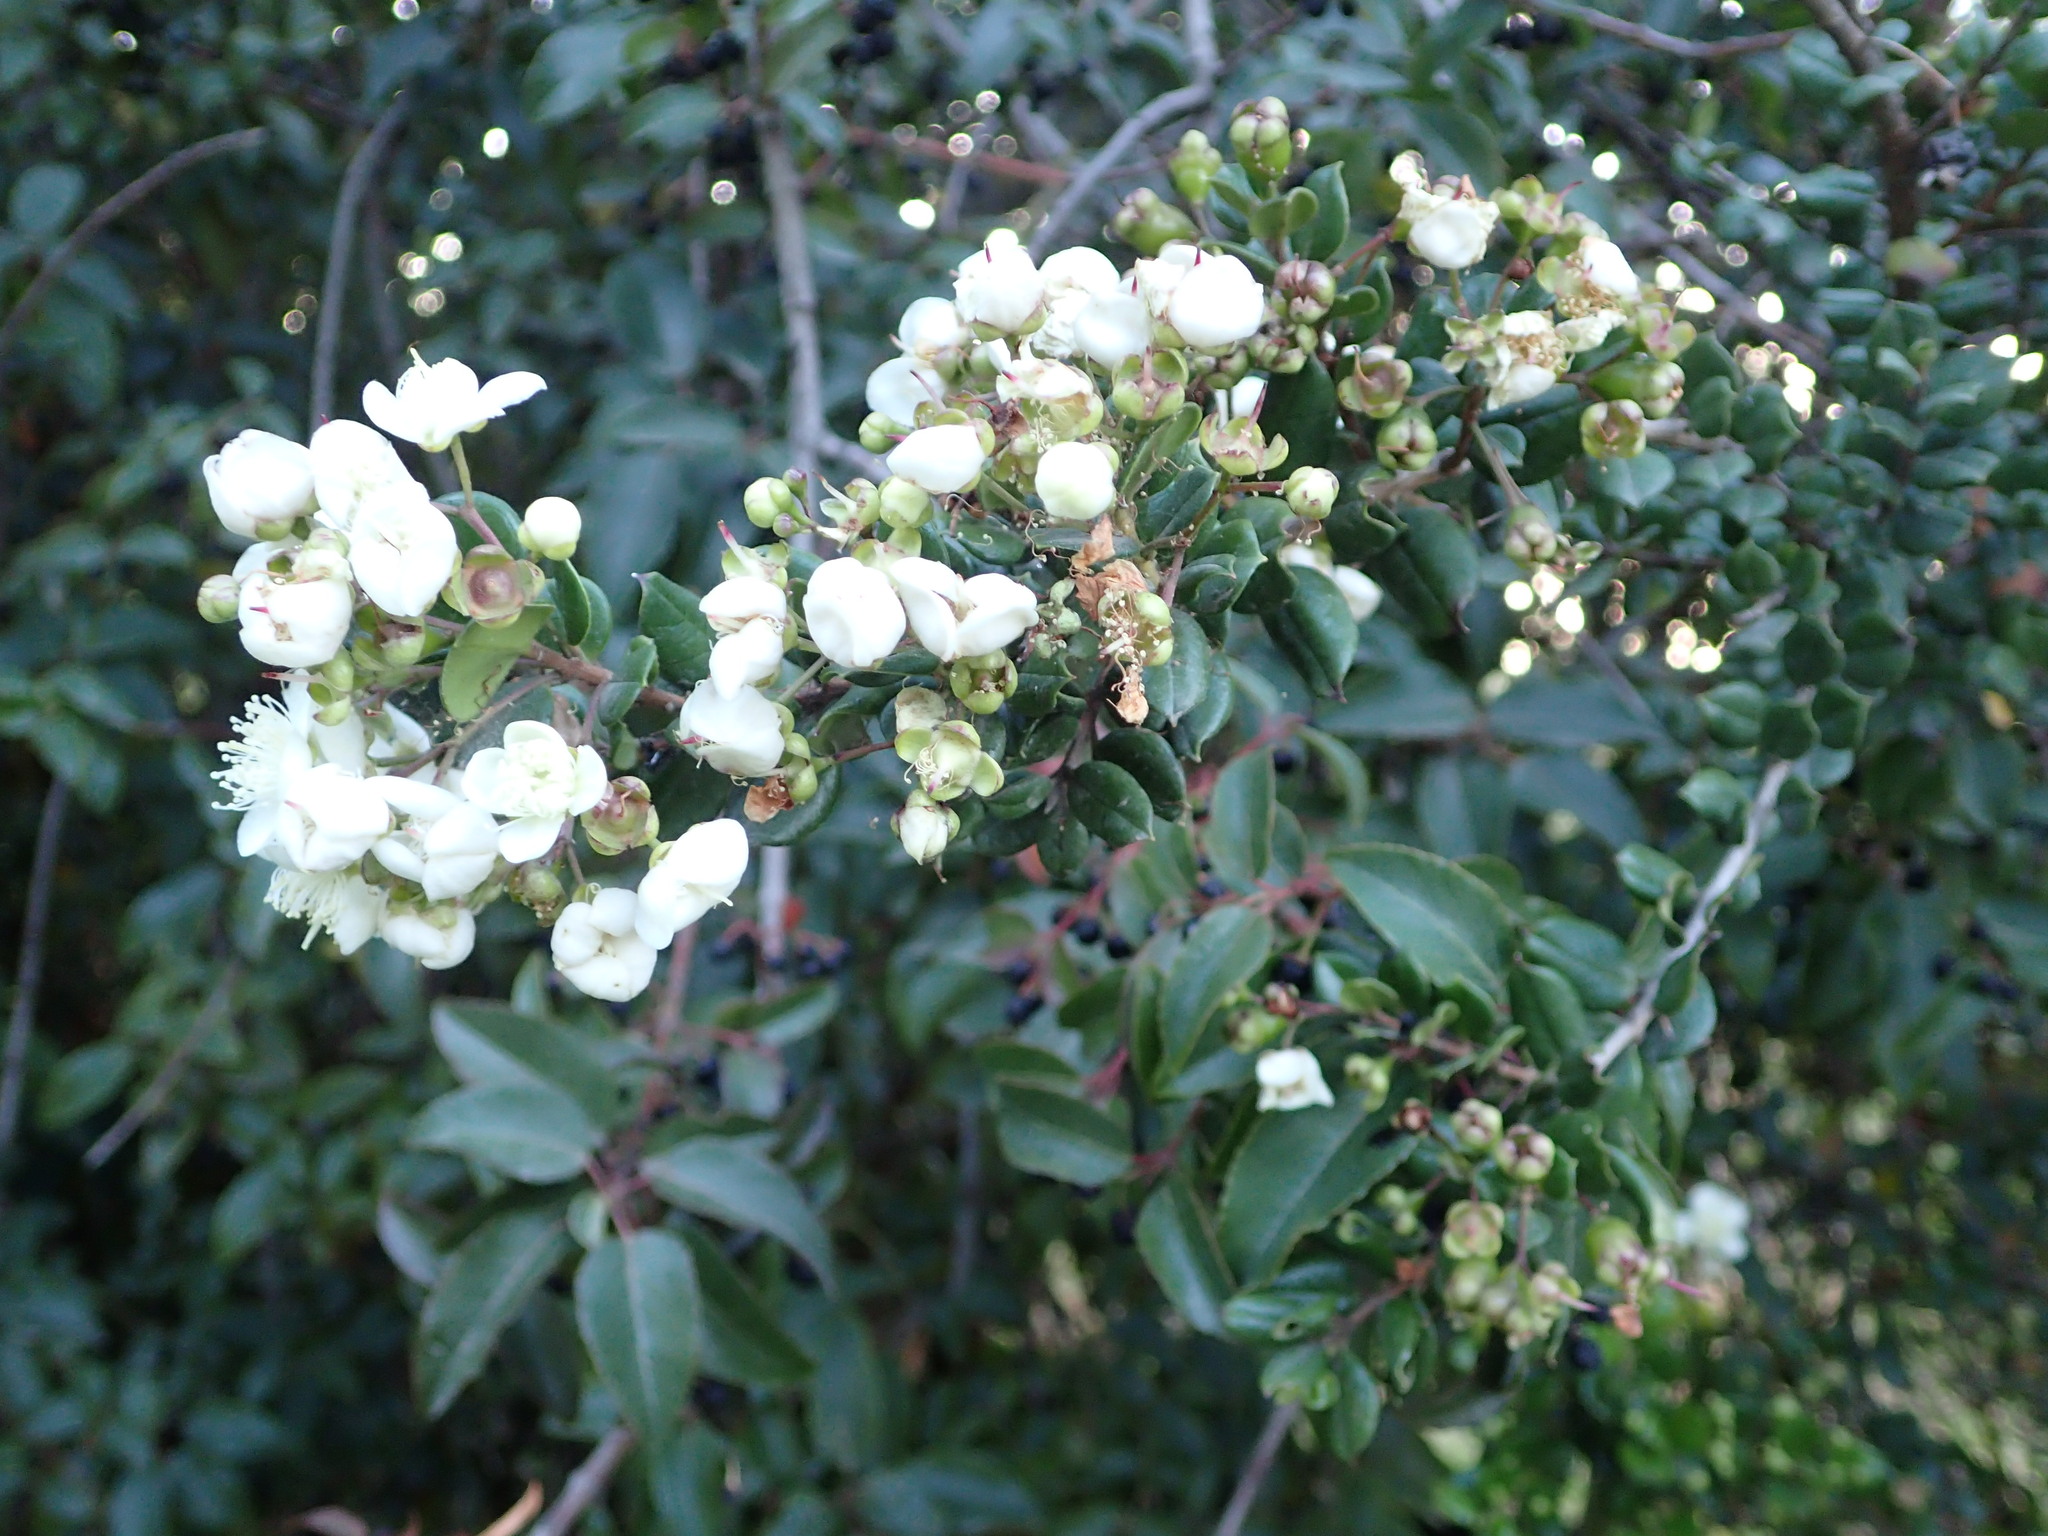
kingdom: Plantae
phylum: Tracheophyta
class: Magnoliopsida
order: Myrtales
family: Myrtaceae
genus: Luma
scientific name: Luma apiculata
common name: Chilean myrtle
